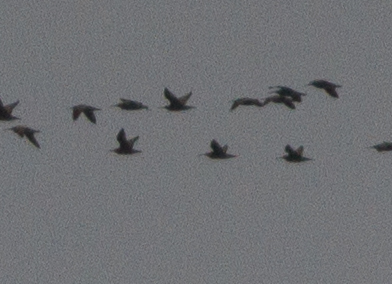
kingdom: Animalia
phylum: Chordata
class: Aves
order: Charadriiformes
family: Scolopacidae
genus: Numenius
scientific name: Numenius phaeopus
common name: Whimbrel
